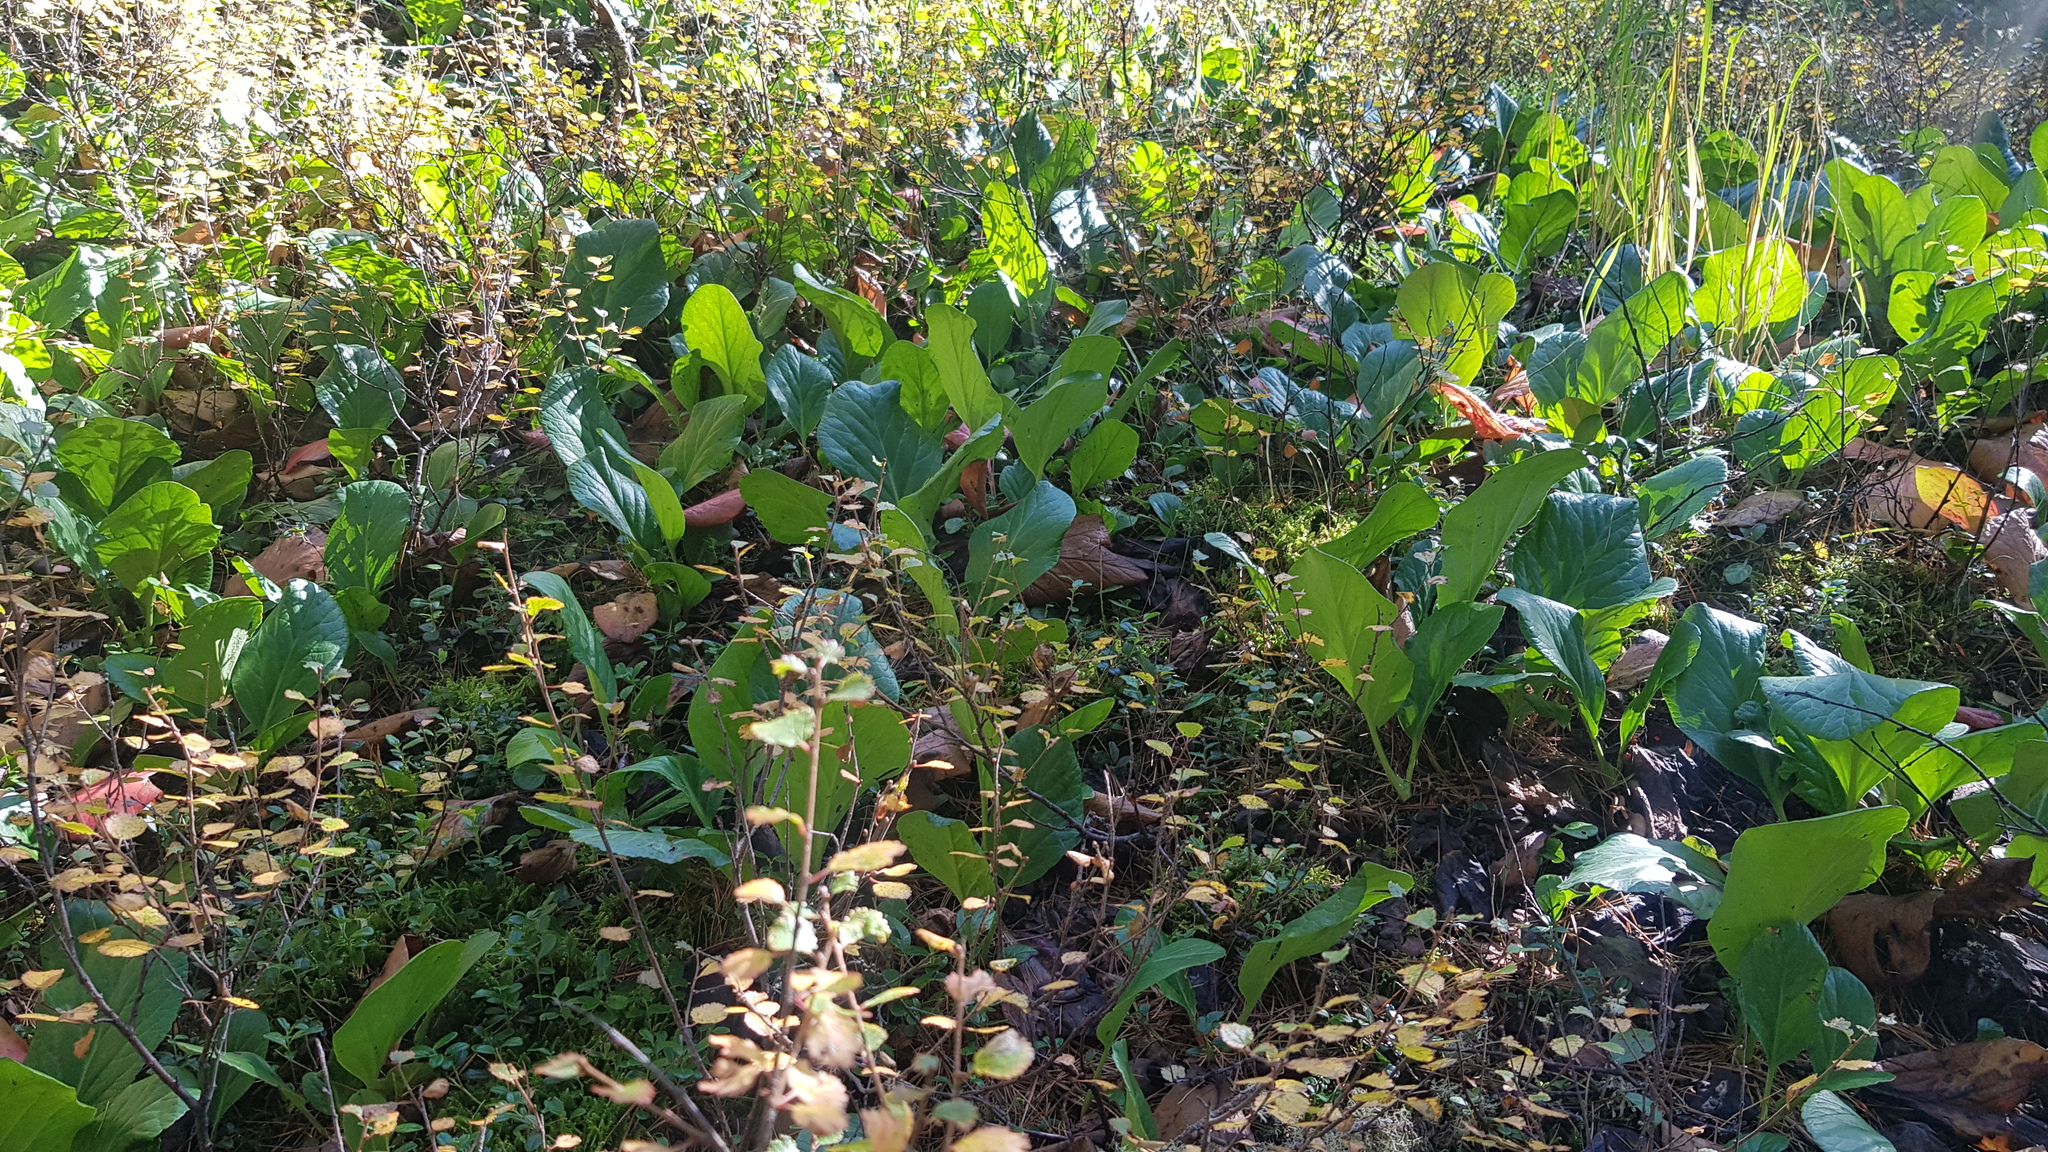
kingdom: Plantae
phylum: Tracheophyta
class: Magnoliopsida
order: Saxifragales
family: Saxifragaceae
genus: Bergenia
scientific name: Bergenia crassifolia
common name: Elephant-ears
